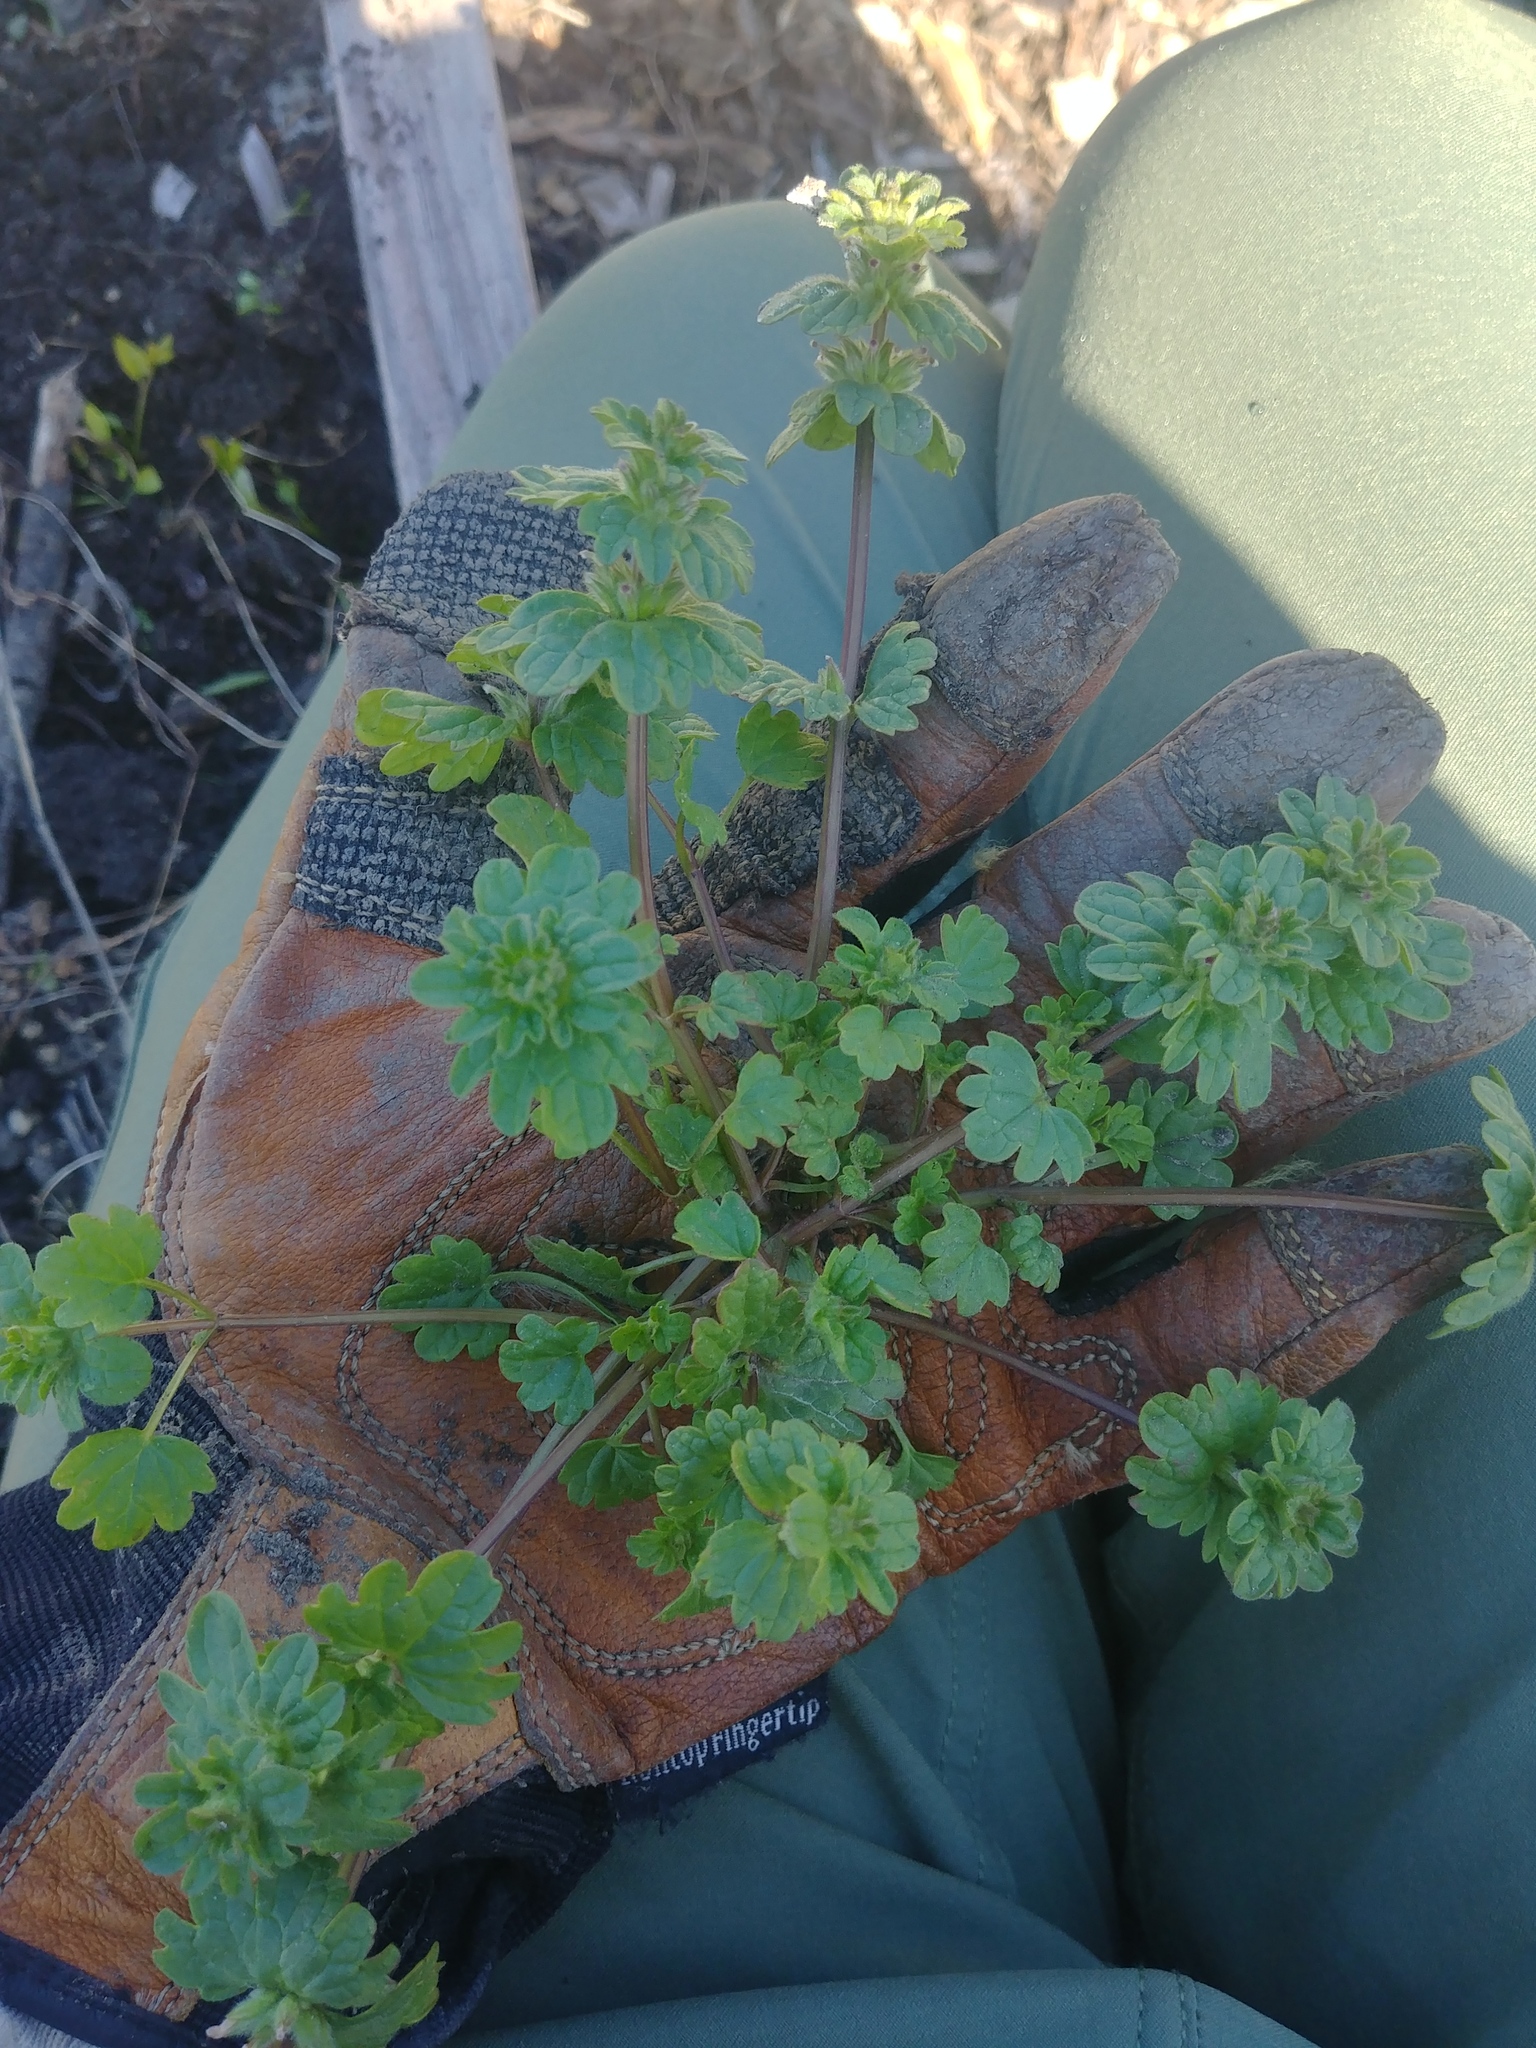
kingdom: Plantae
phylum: Tracheophyta
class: Magnoliopsida
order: Lamiales
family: Lamiaceae
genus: Lamium
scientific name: Lamium amplexicaule
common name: Henbit dead-nettle
